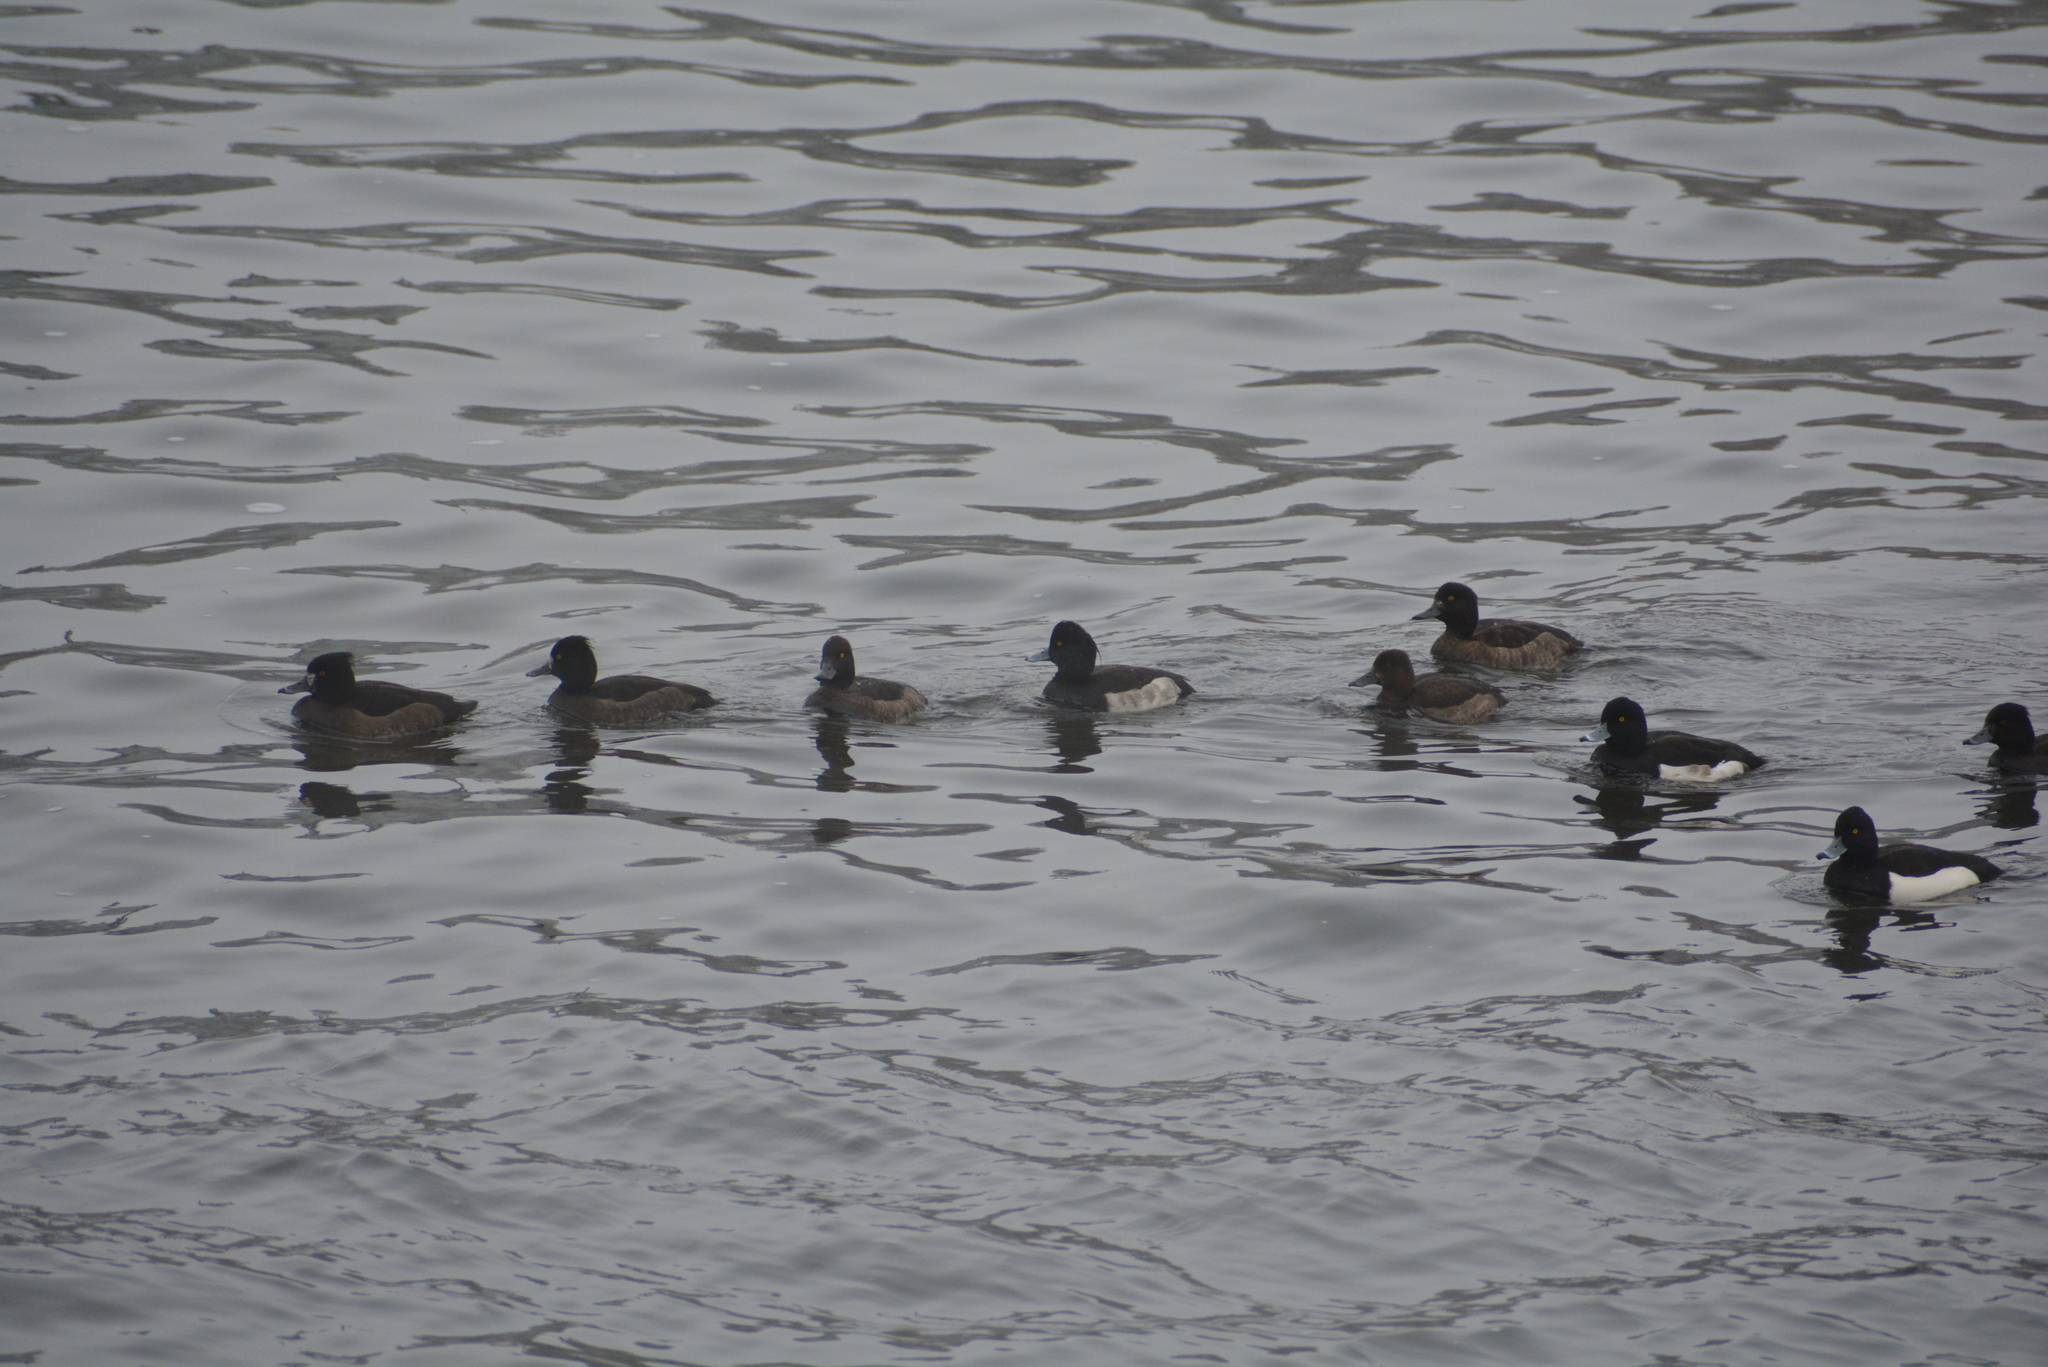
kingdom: Animalia
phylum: Chordata
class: Aves
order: Anseriformes
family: Anatidae
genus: Aythya
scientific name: Aythya fuligula
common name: Tufted duck
